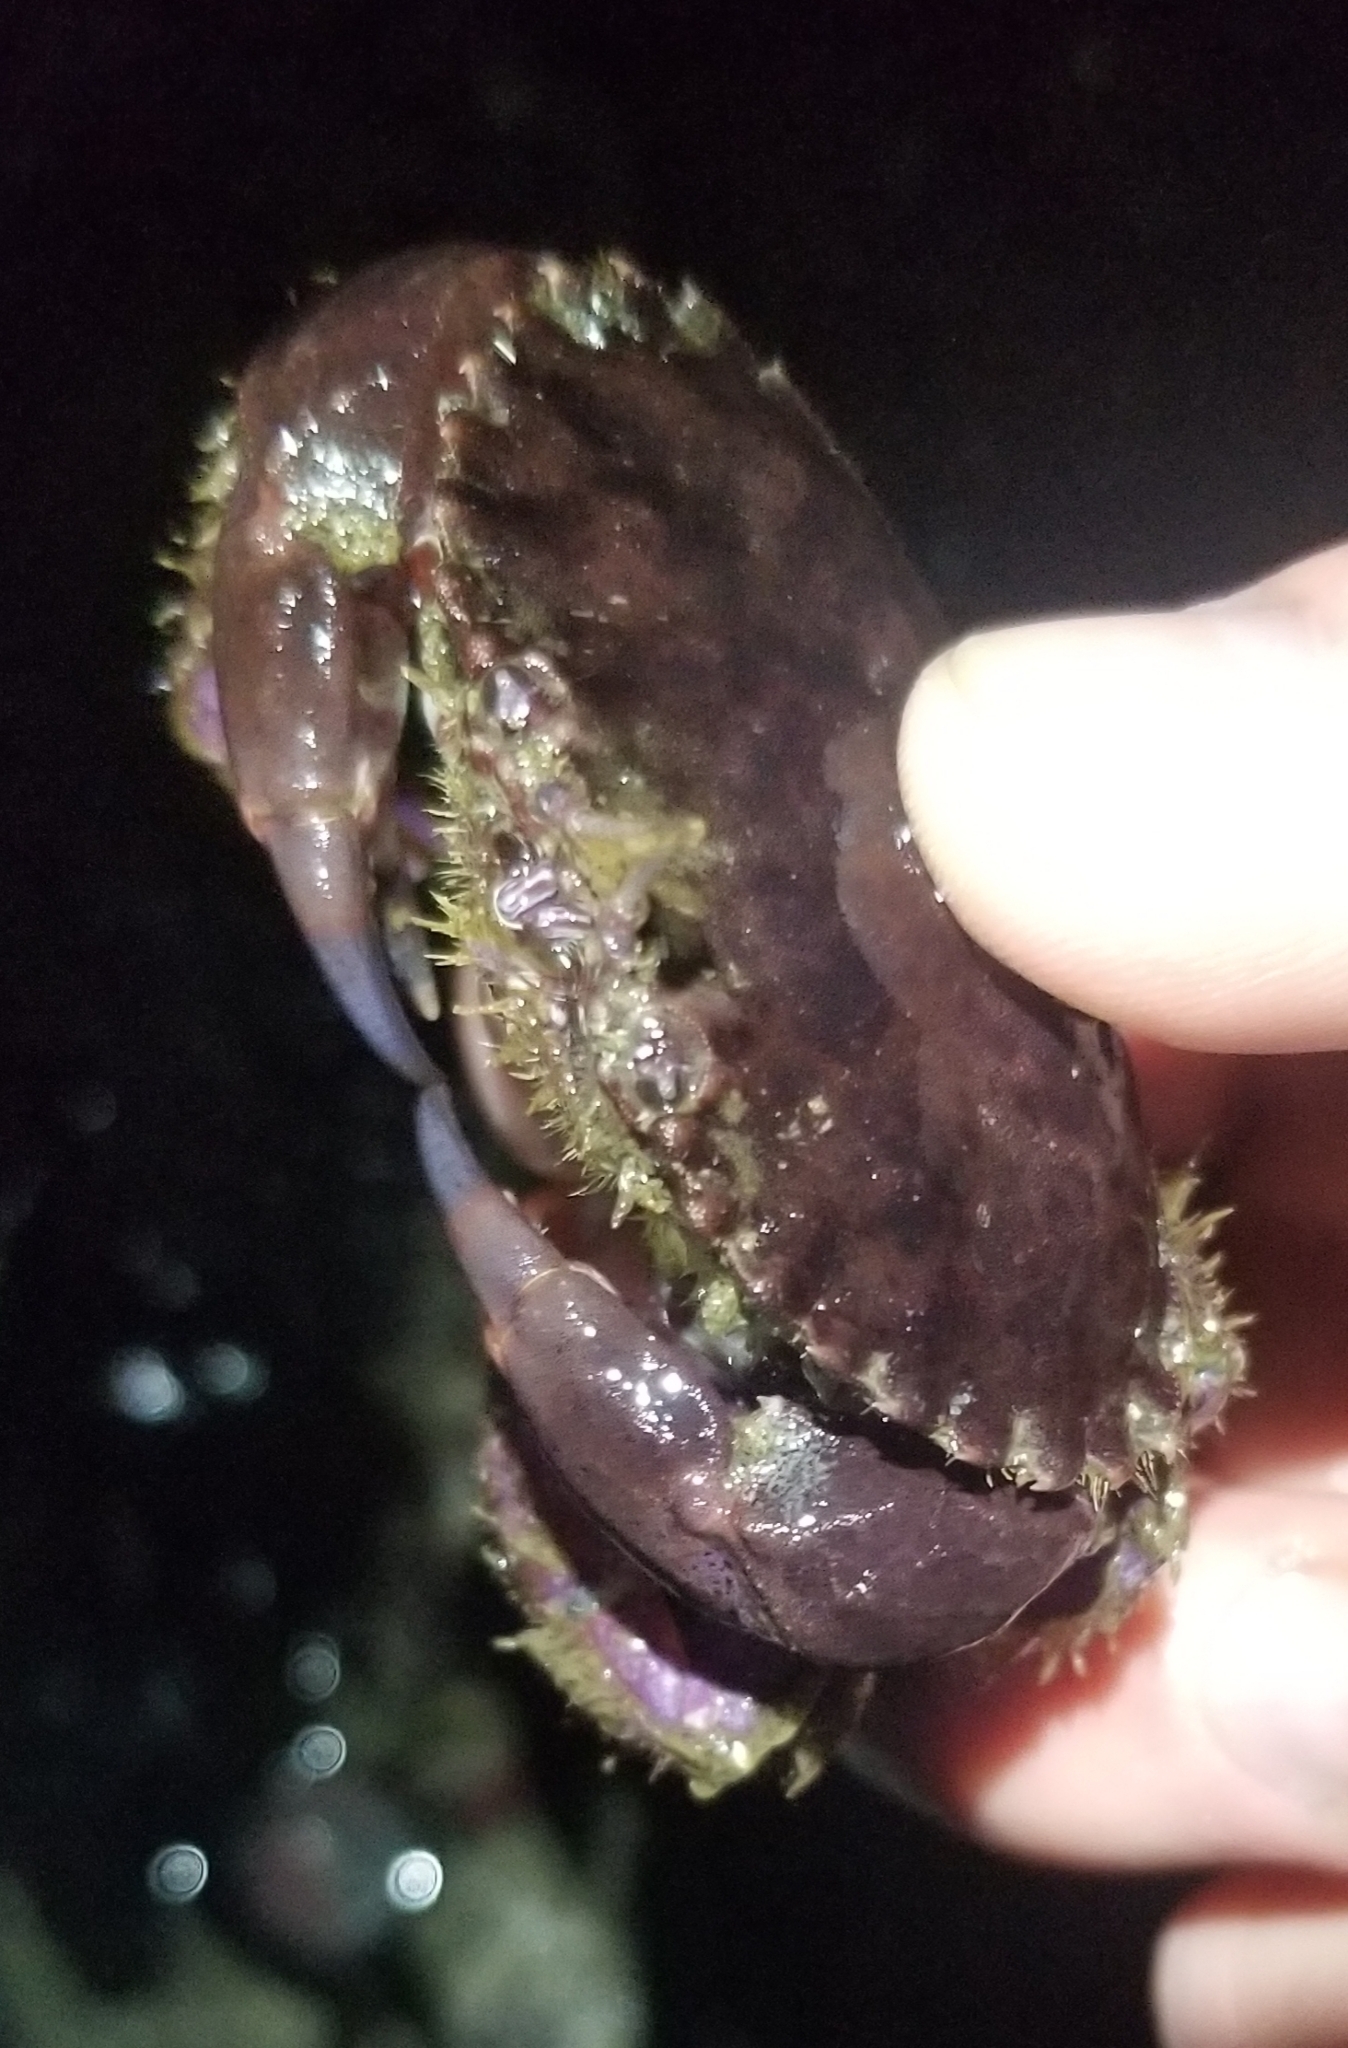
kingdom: Animalia
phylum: Arthropoda
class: Malacostraca
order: Decapoda
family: Cancridae
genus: Romaleon
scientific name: Romaleon antennarium
